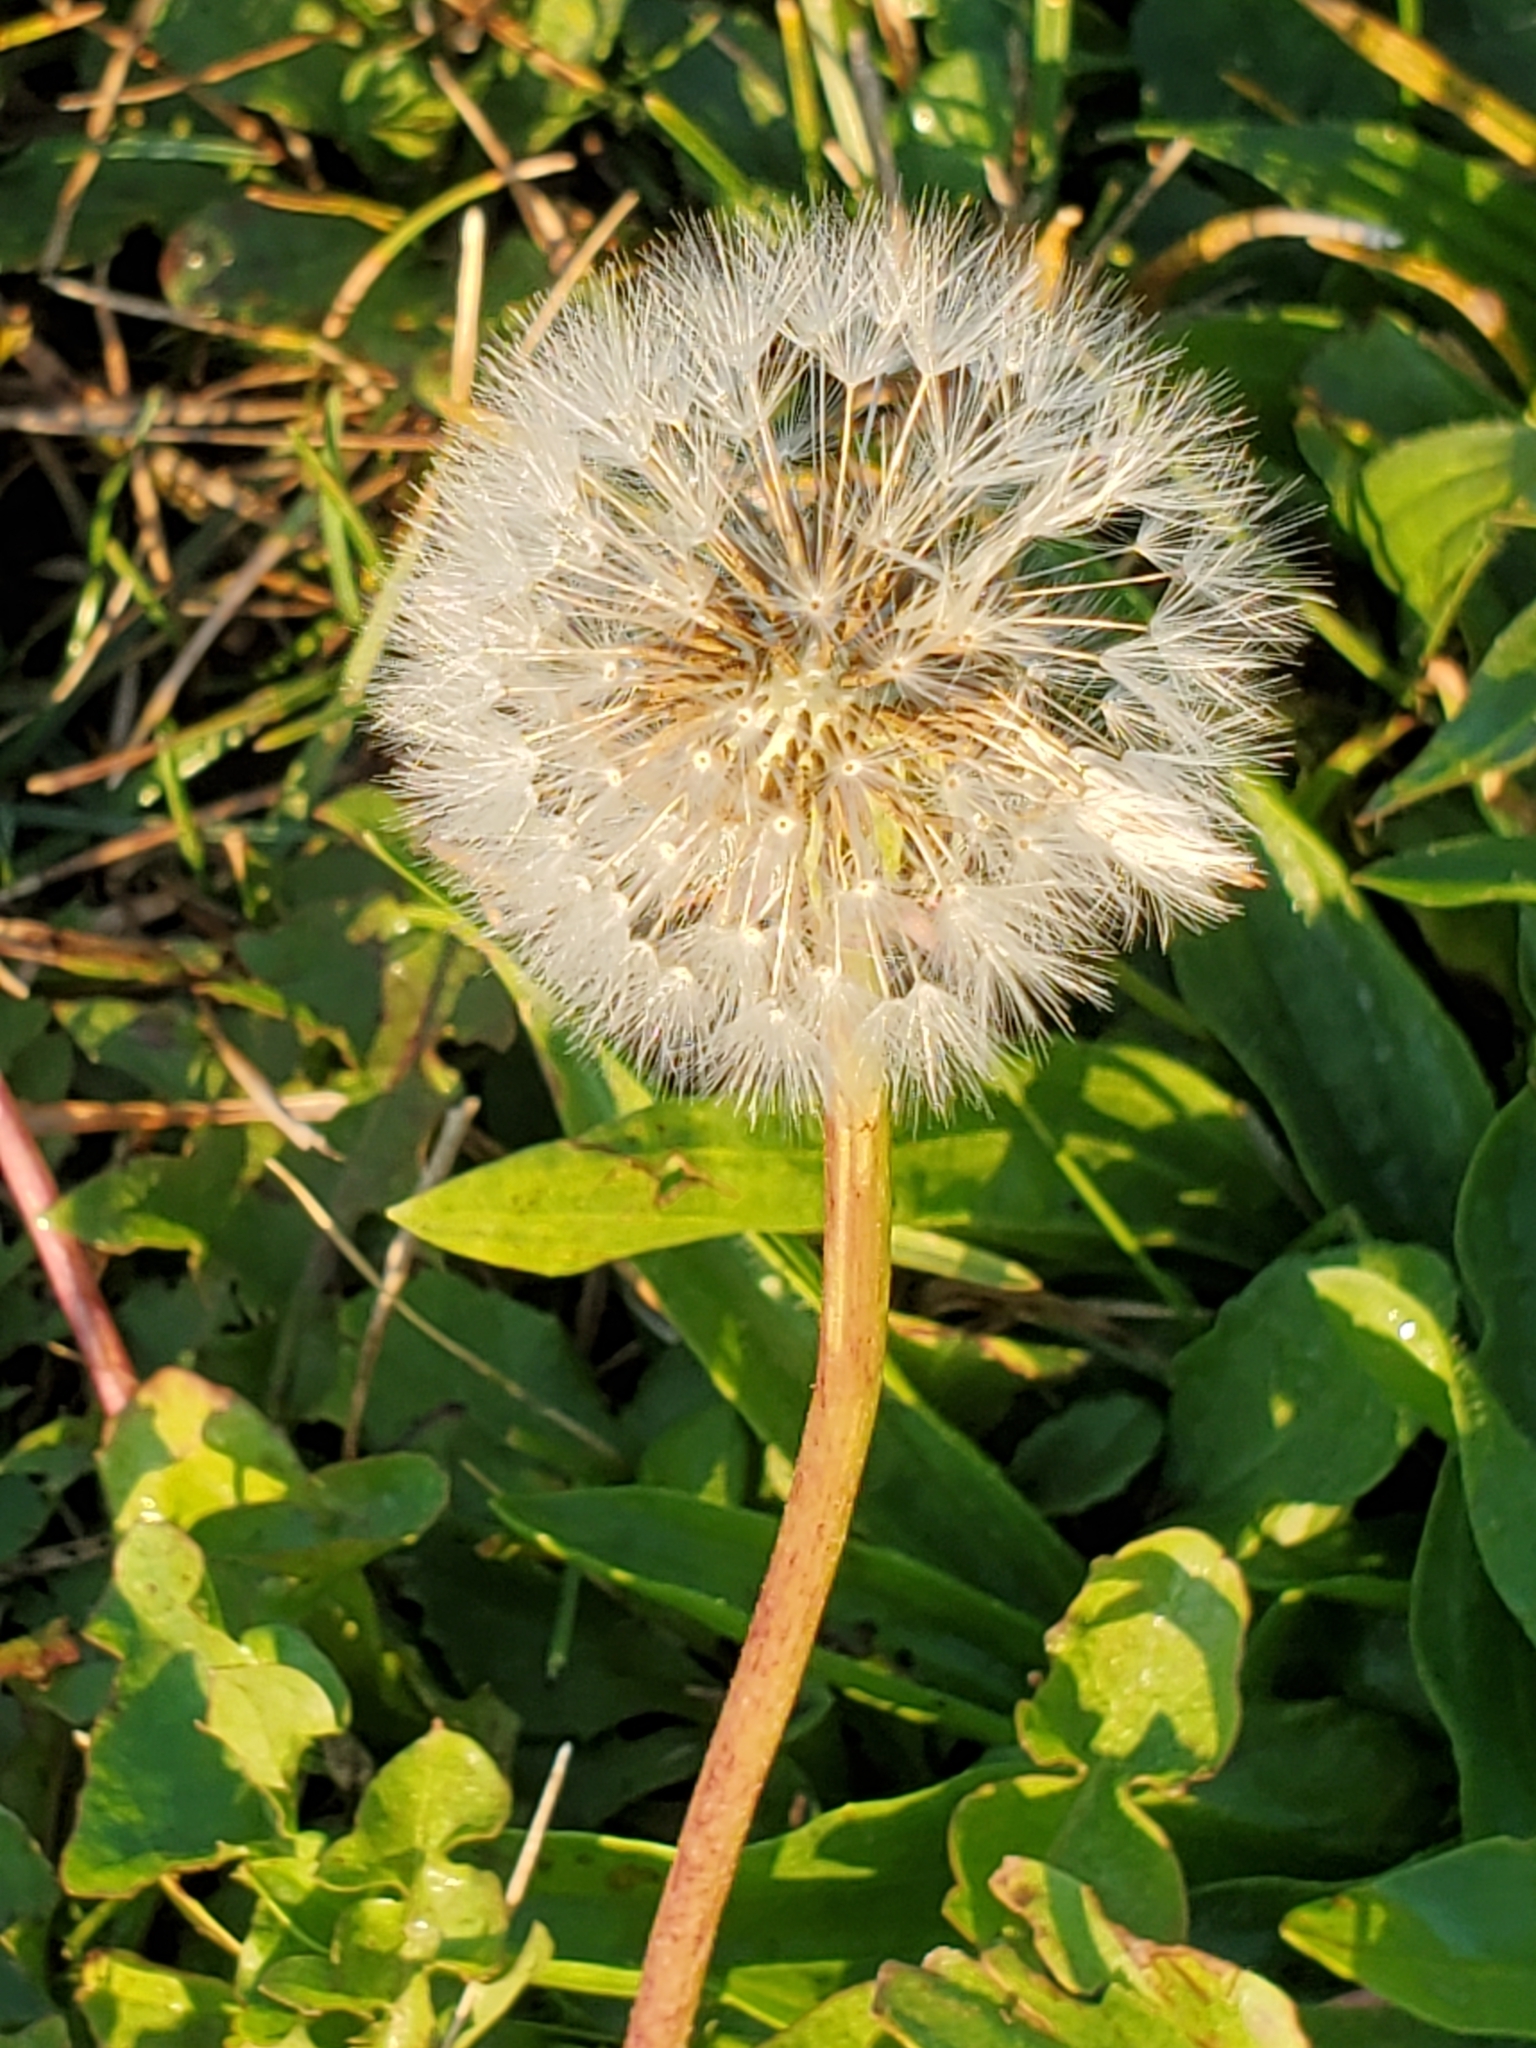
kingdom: Plantae
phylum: Tracheophyta
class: Magnoliopsida
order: Asterales
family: Asteraceae
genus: Taraxacum
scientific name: Taraxacum officinale
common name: Common dandelion
